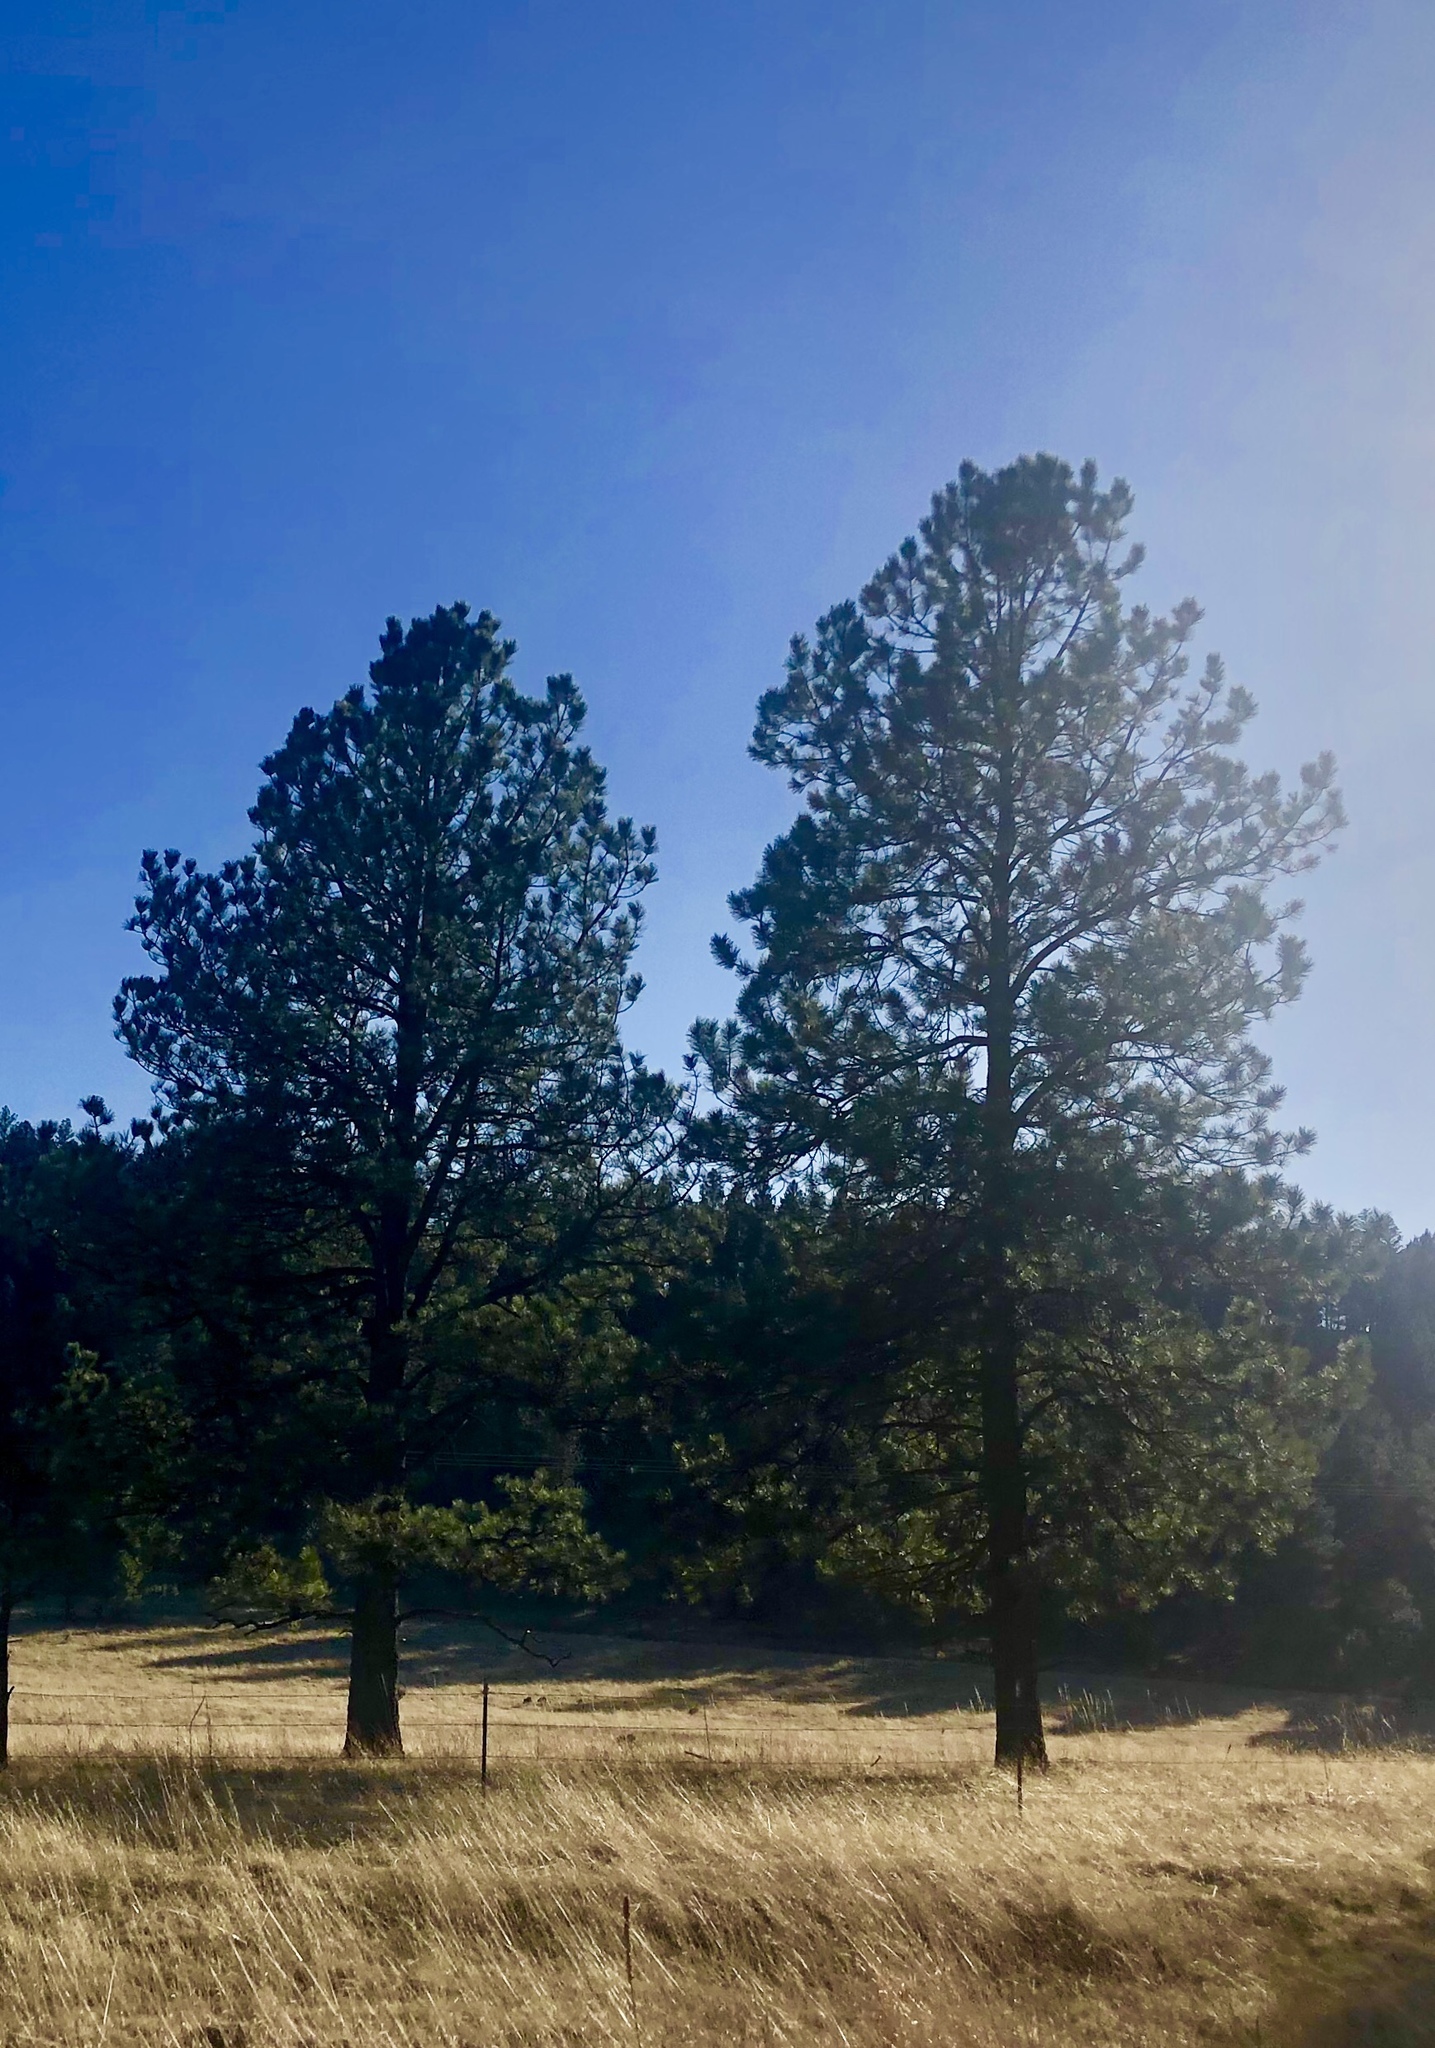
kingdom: Plantae
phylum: Tracheophyta
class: Pinopsida
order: Pinales
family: Pinaceae
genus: Pinus
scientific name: Pinus ponderosa
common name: Western yellow-pine
